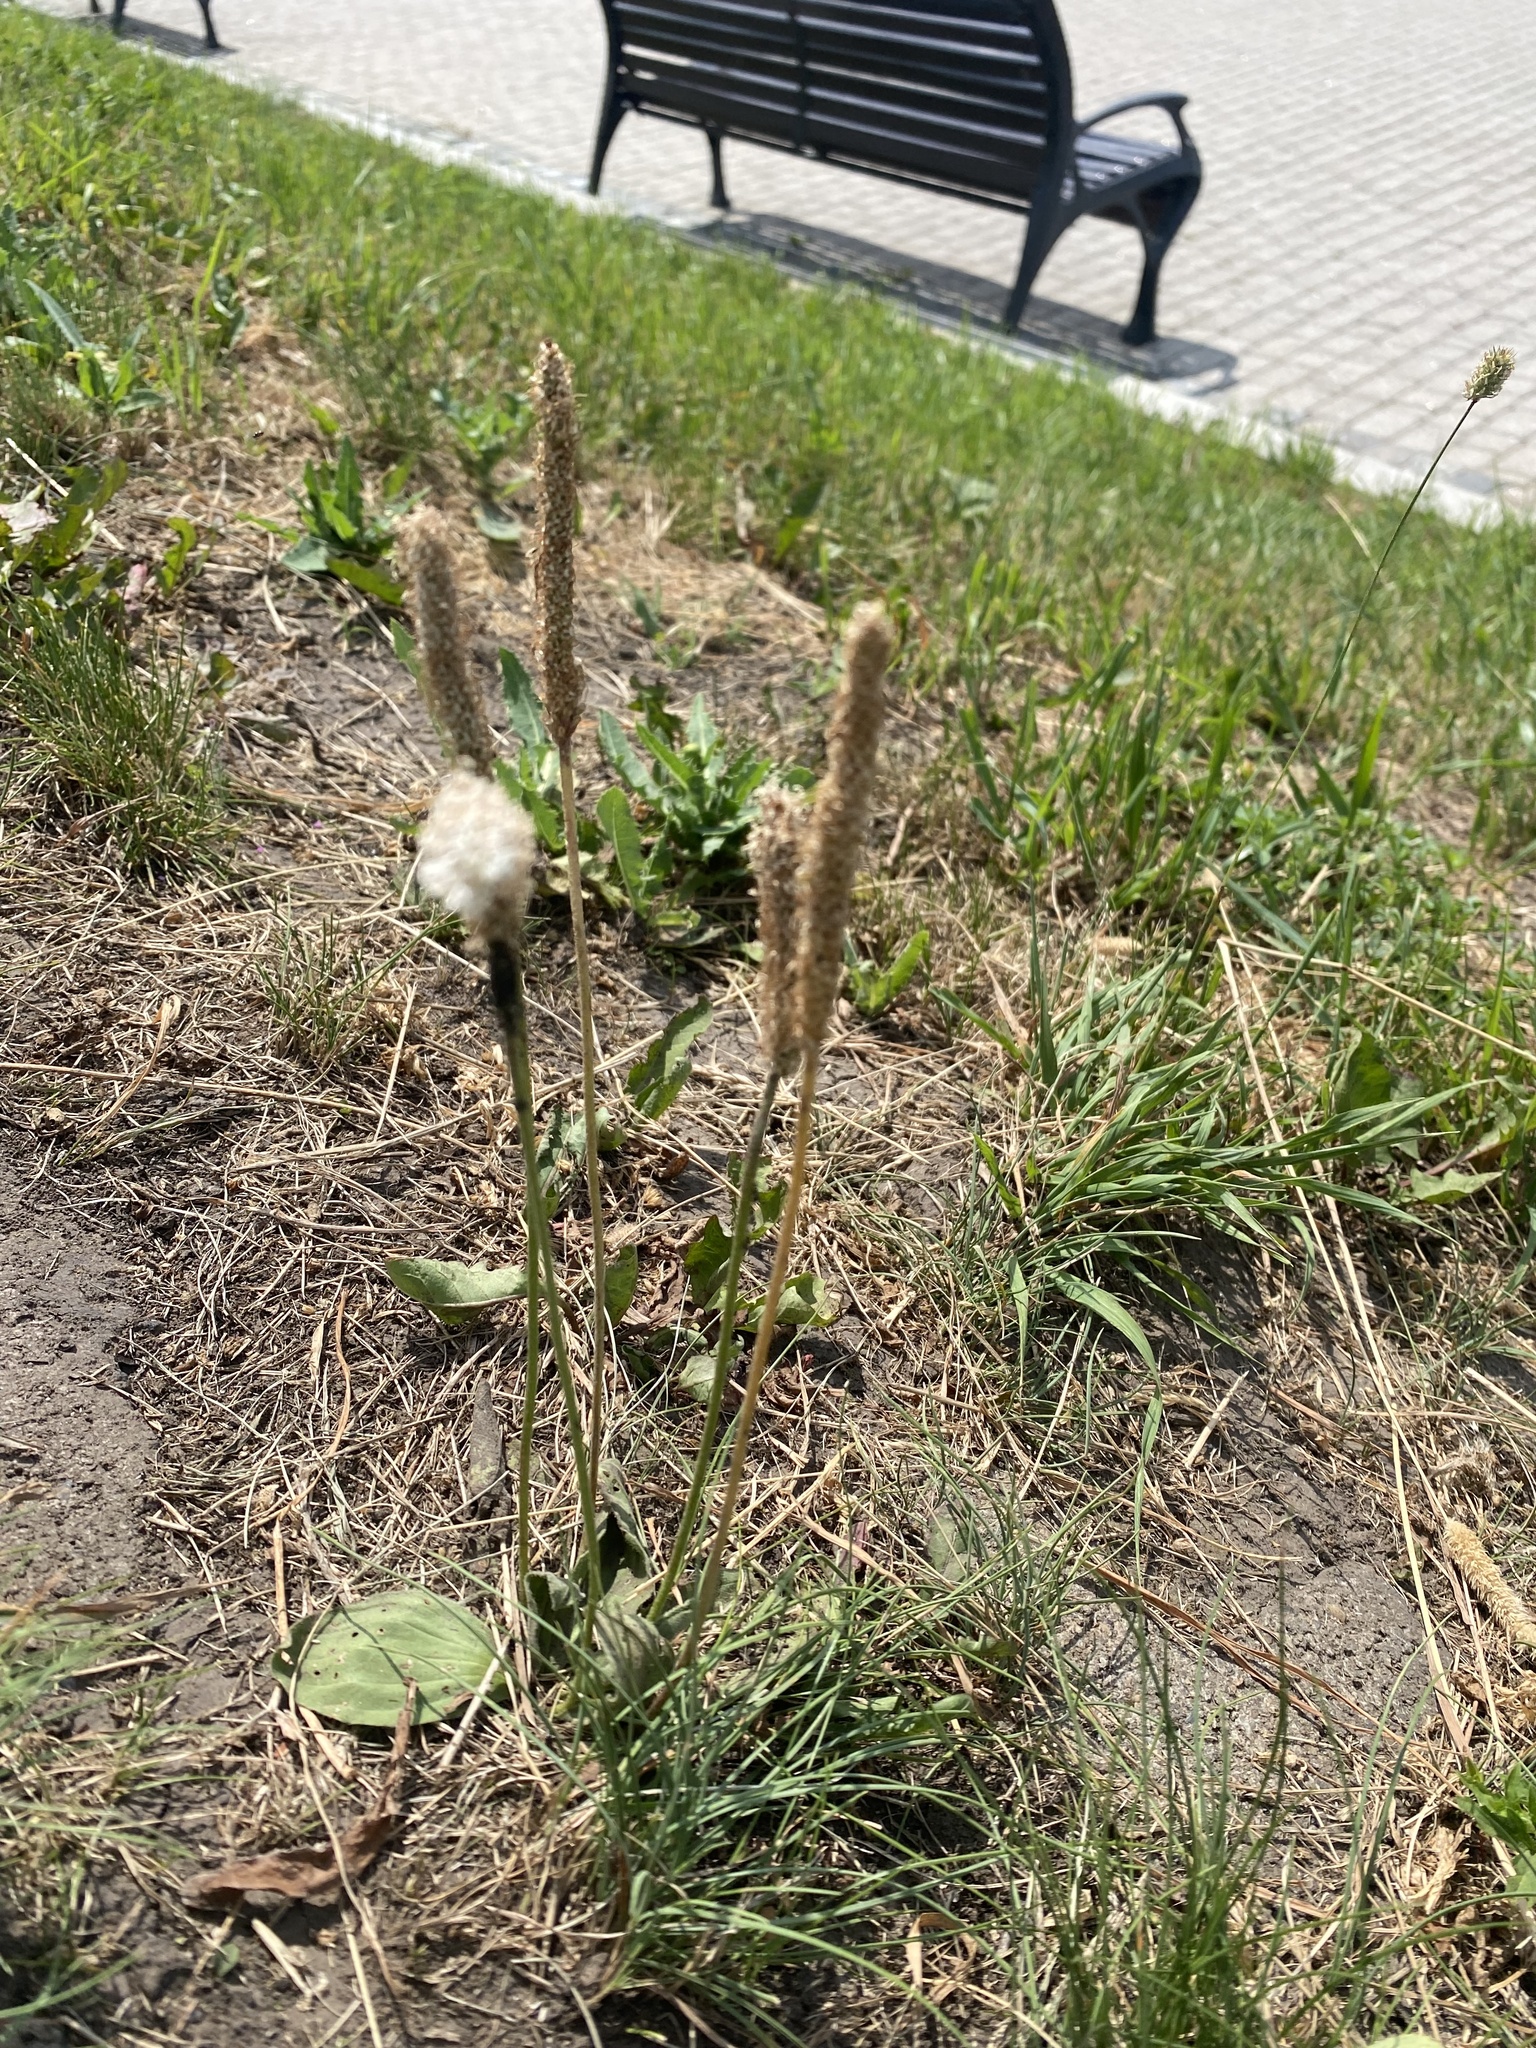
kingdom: Plantae
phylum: Tracheophyta
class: Magnoliopsida
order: Lamiales
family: Plantaginaceae
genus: Plantago
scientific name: Plantago media
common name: Hoary plantain
